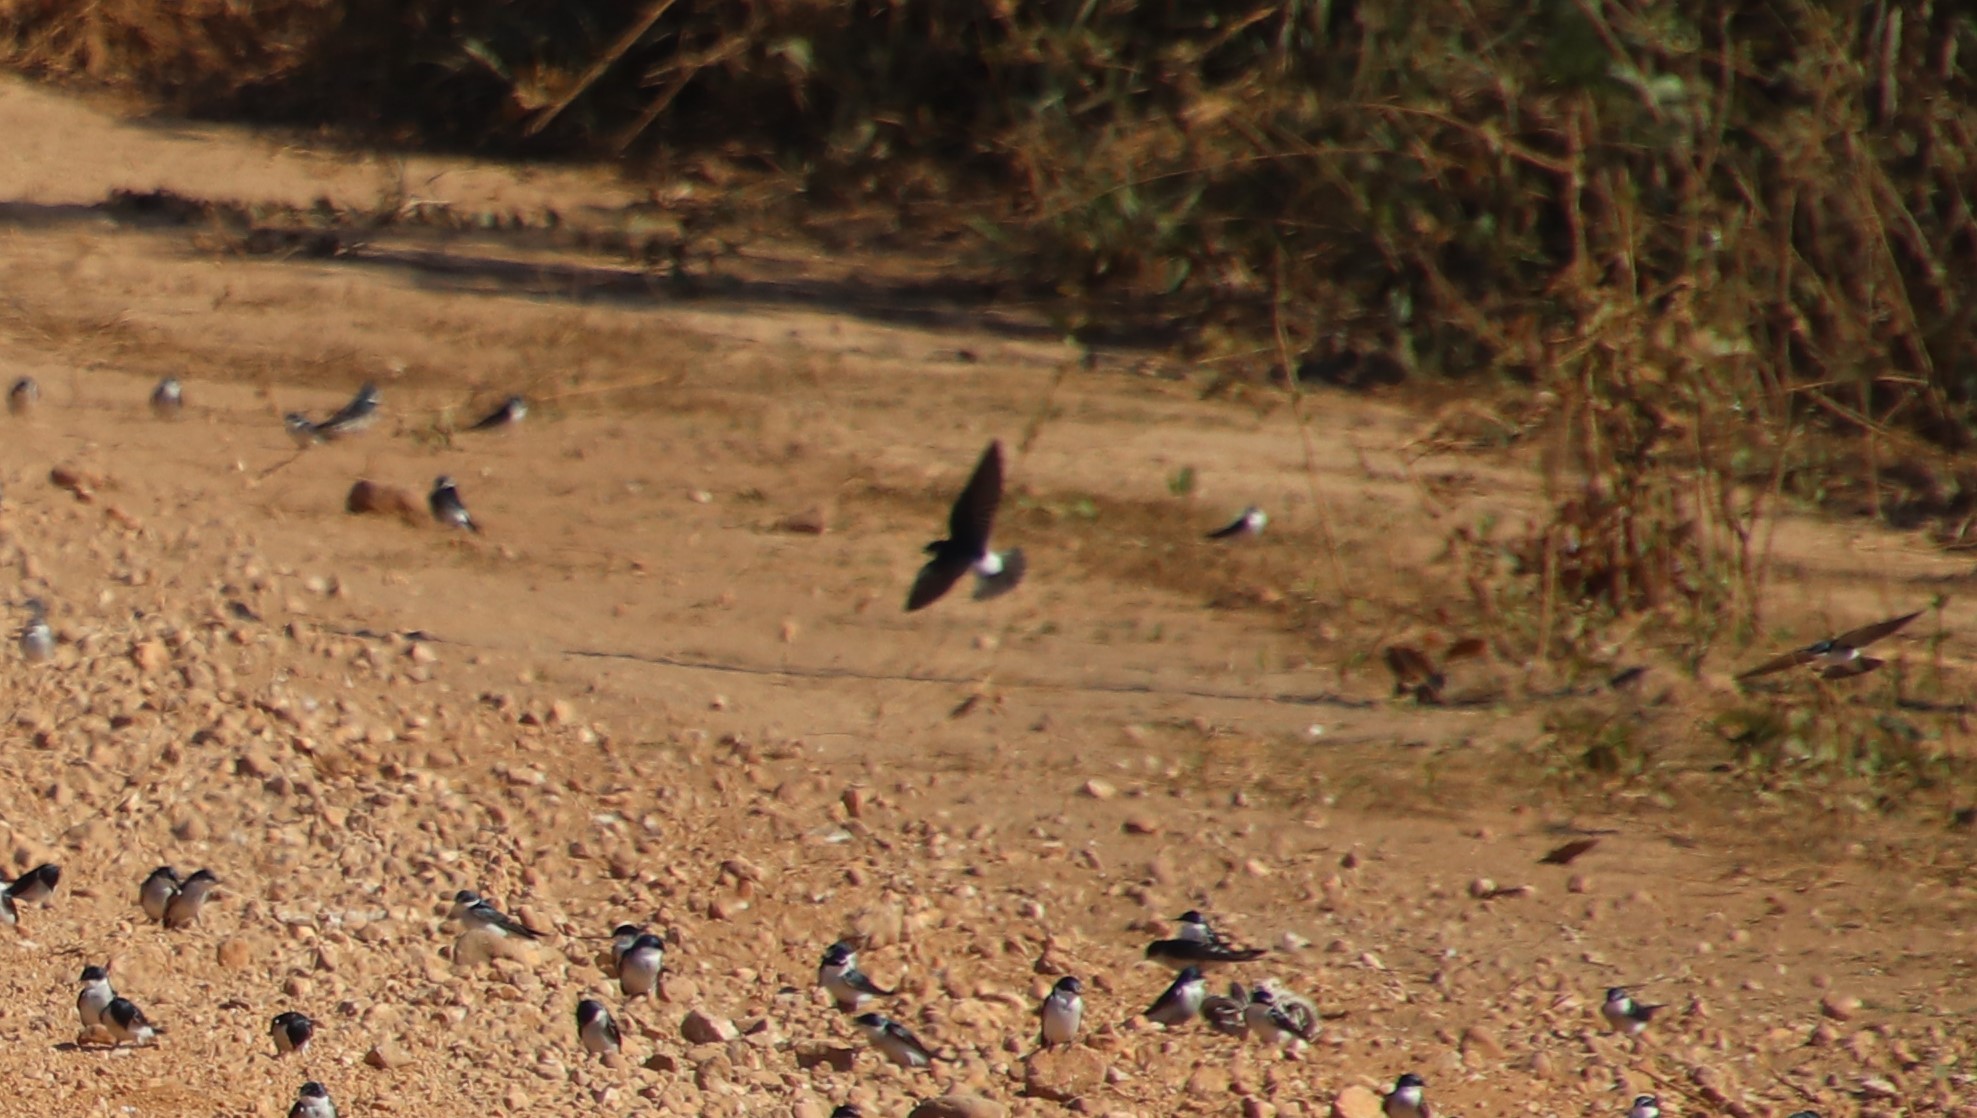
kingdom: Animalia
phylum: Chordata
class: Aves
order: Passeriformes
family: Hirundinidae
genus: Tachycineta
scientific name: Tachycineta leucorrhoa
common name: White-rumped swallow
